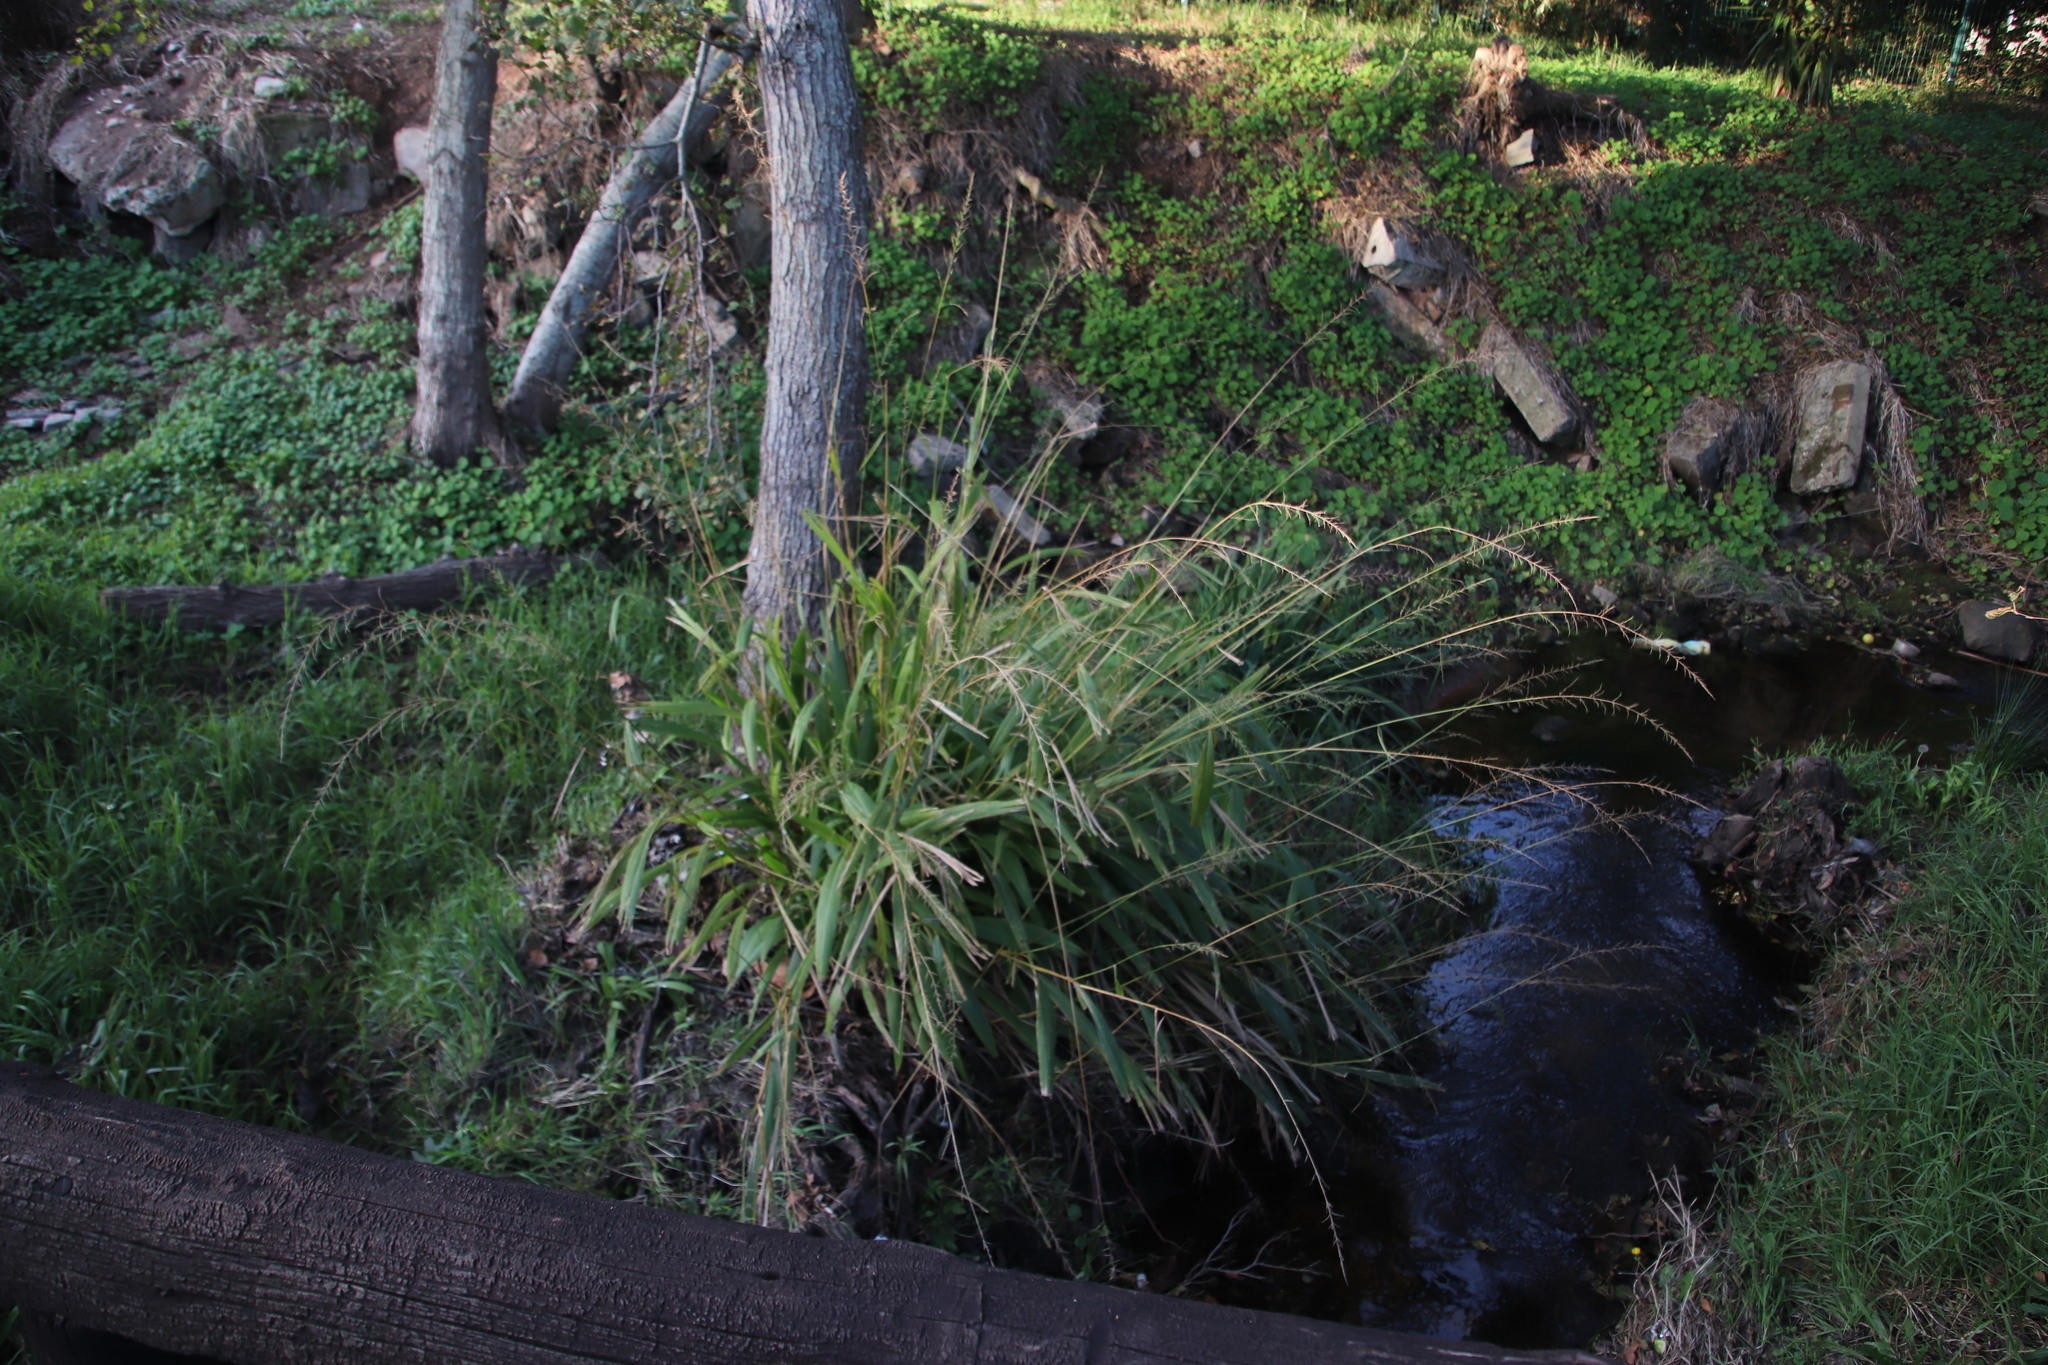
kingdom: Plantae
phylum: Tracheophyta
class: Liliopsida
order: Poales
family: Poaceae
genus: Setaria
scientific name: Setaria megaphylla
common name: Bigleaf bristlegrass
